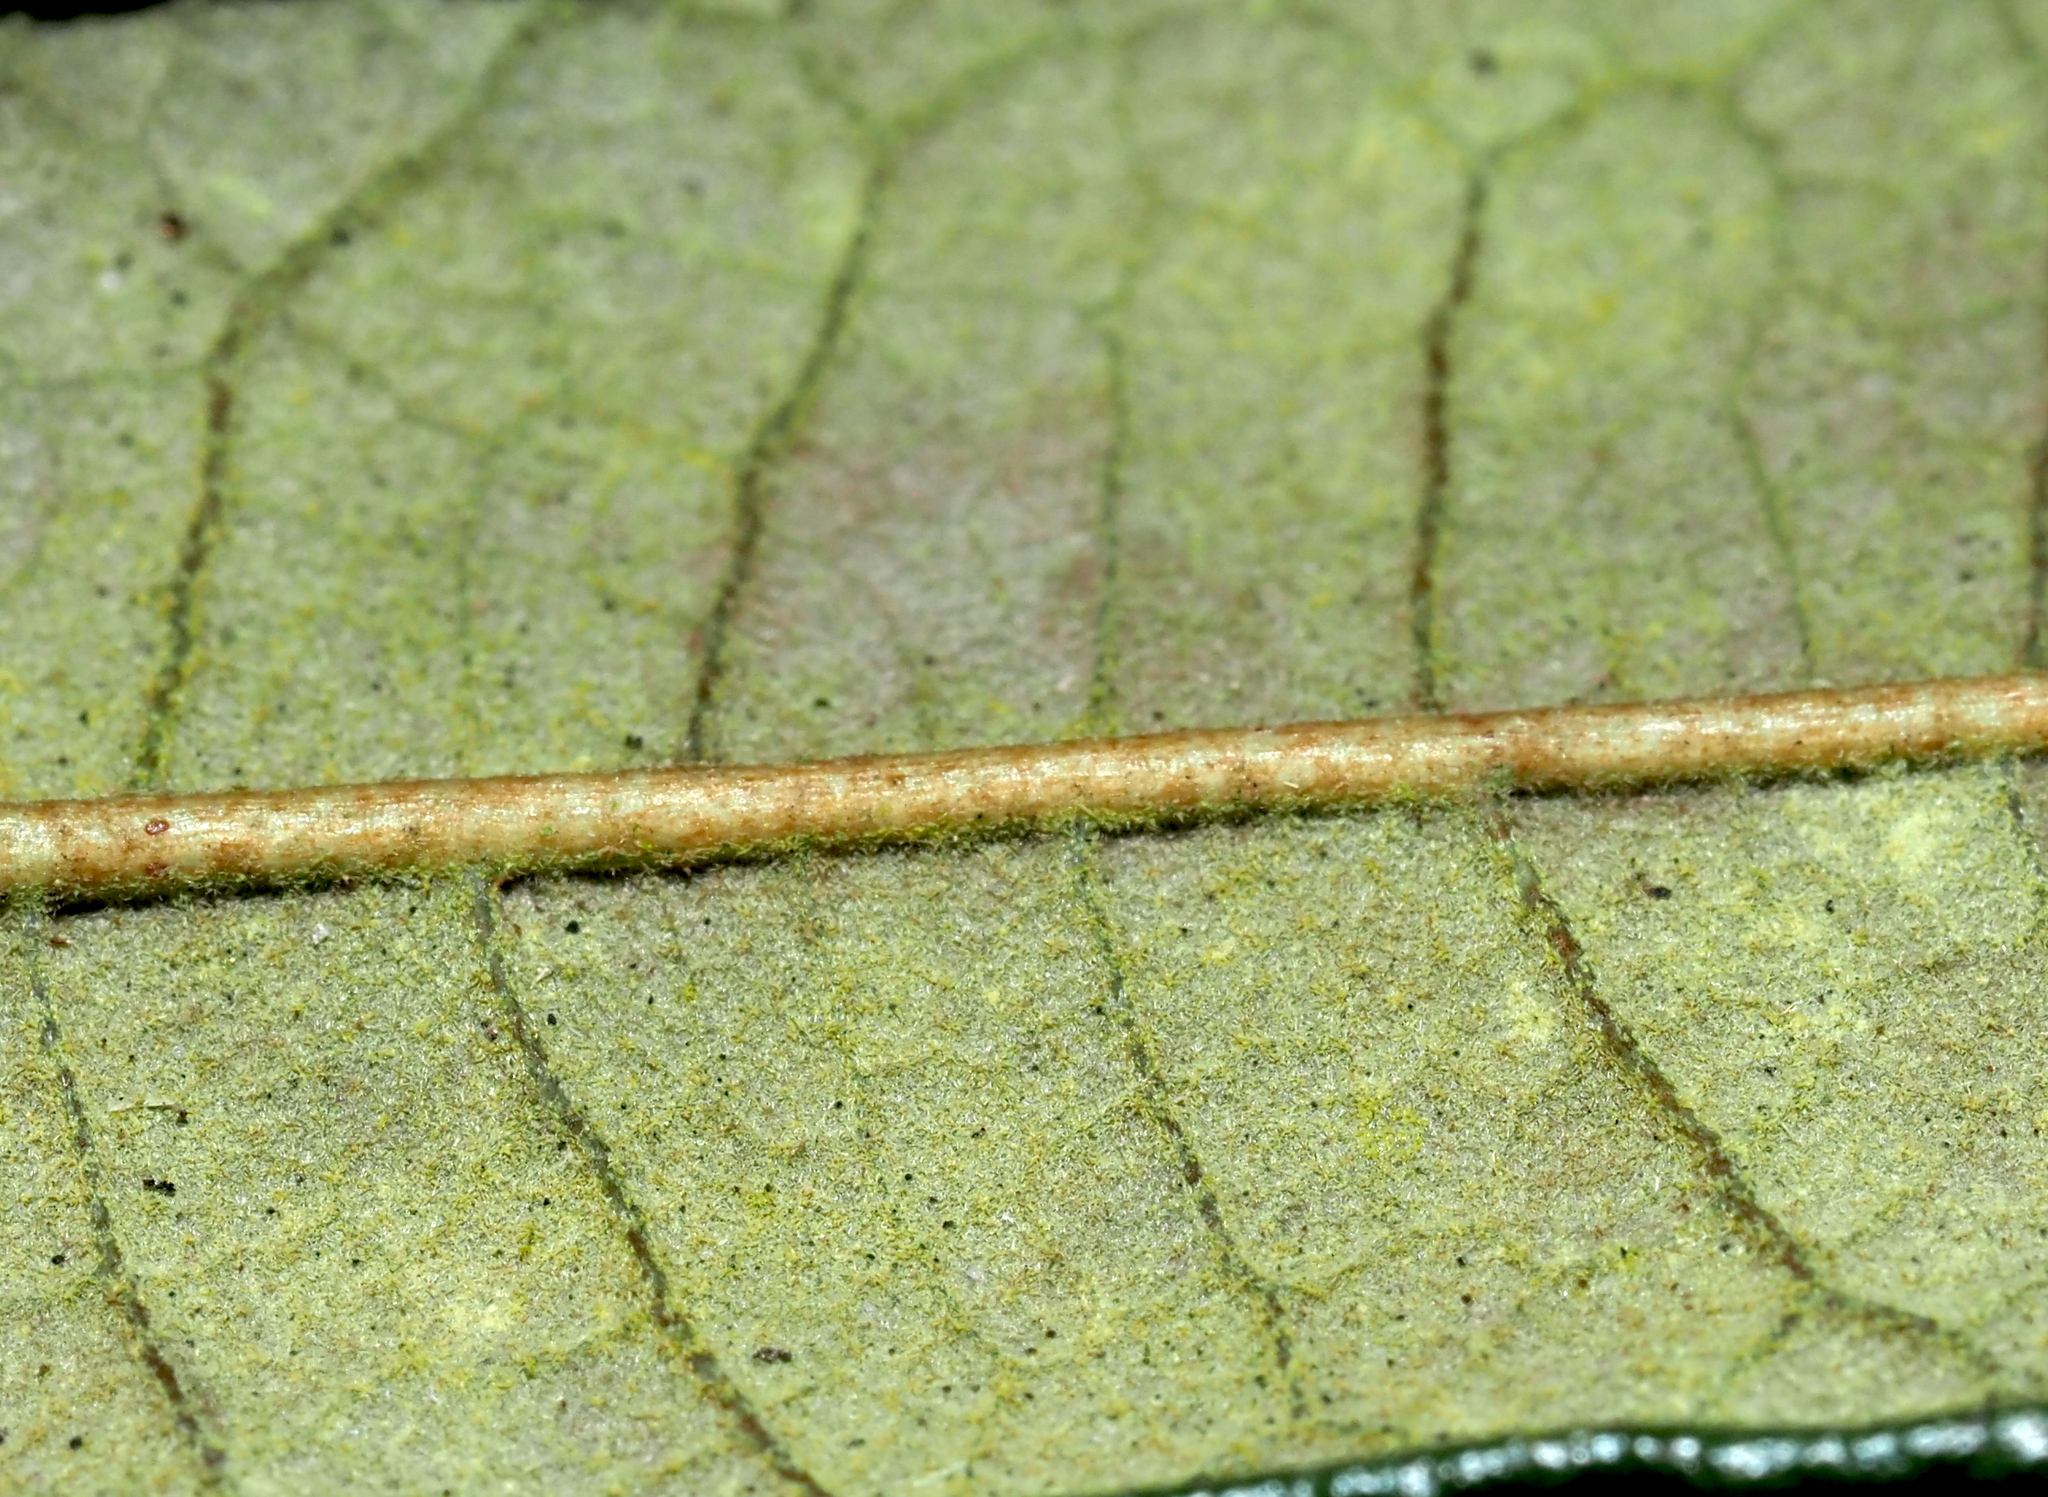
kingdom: Plantae
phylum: Tracheophyta
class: Magnoliopsida
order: Fagales
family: Fagaceae
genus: Quercus
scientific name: Quercus geminata
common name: Sand live oak
